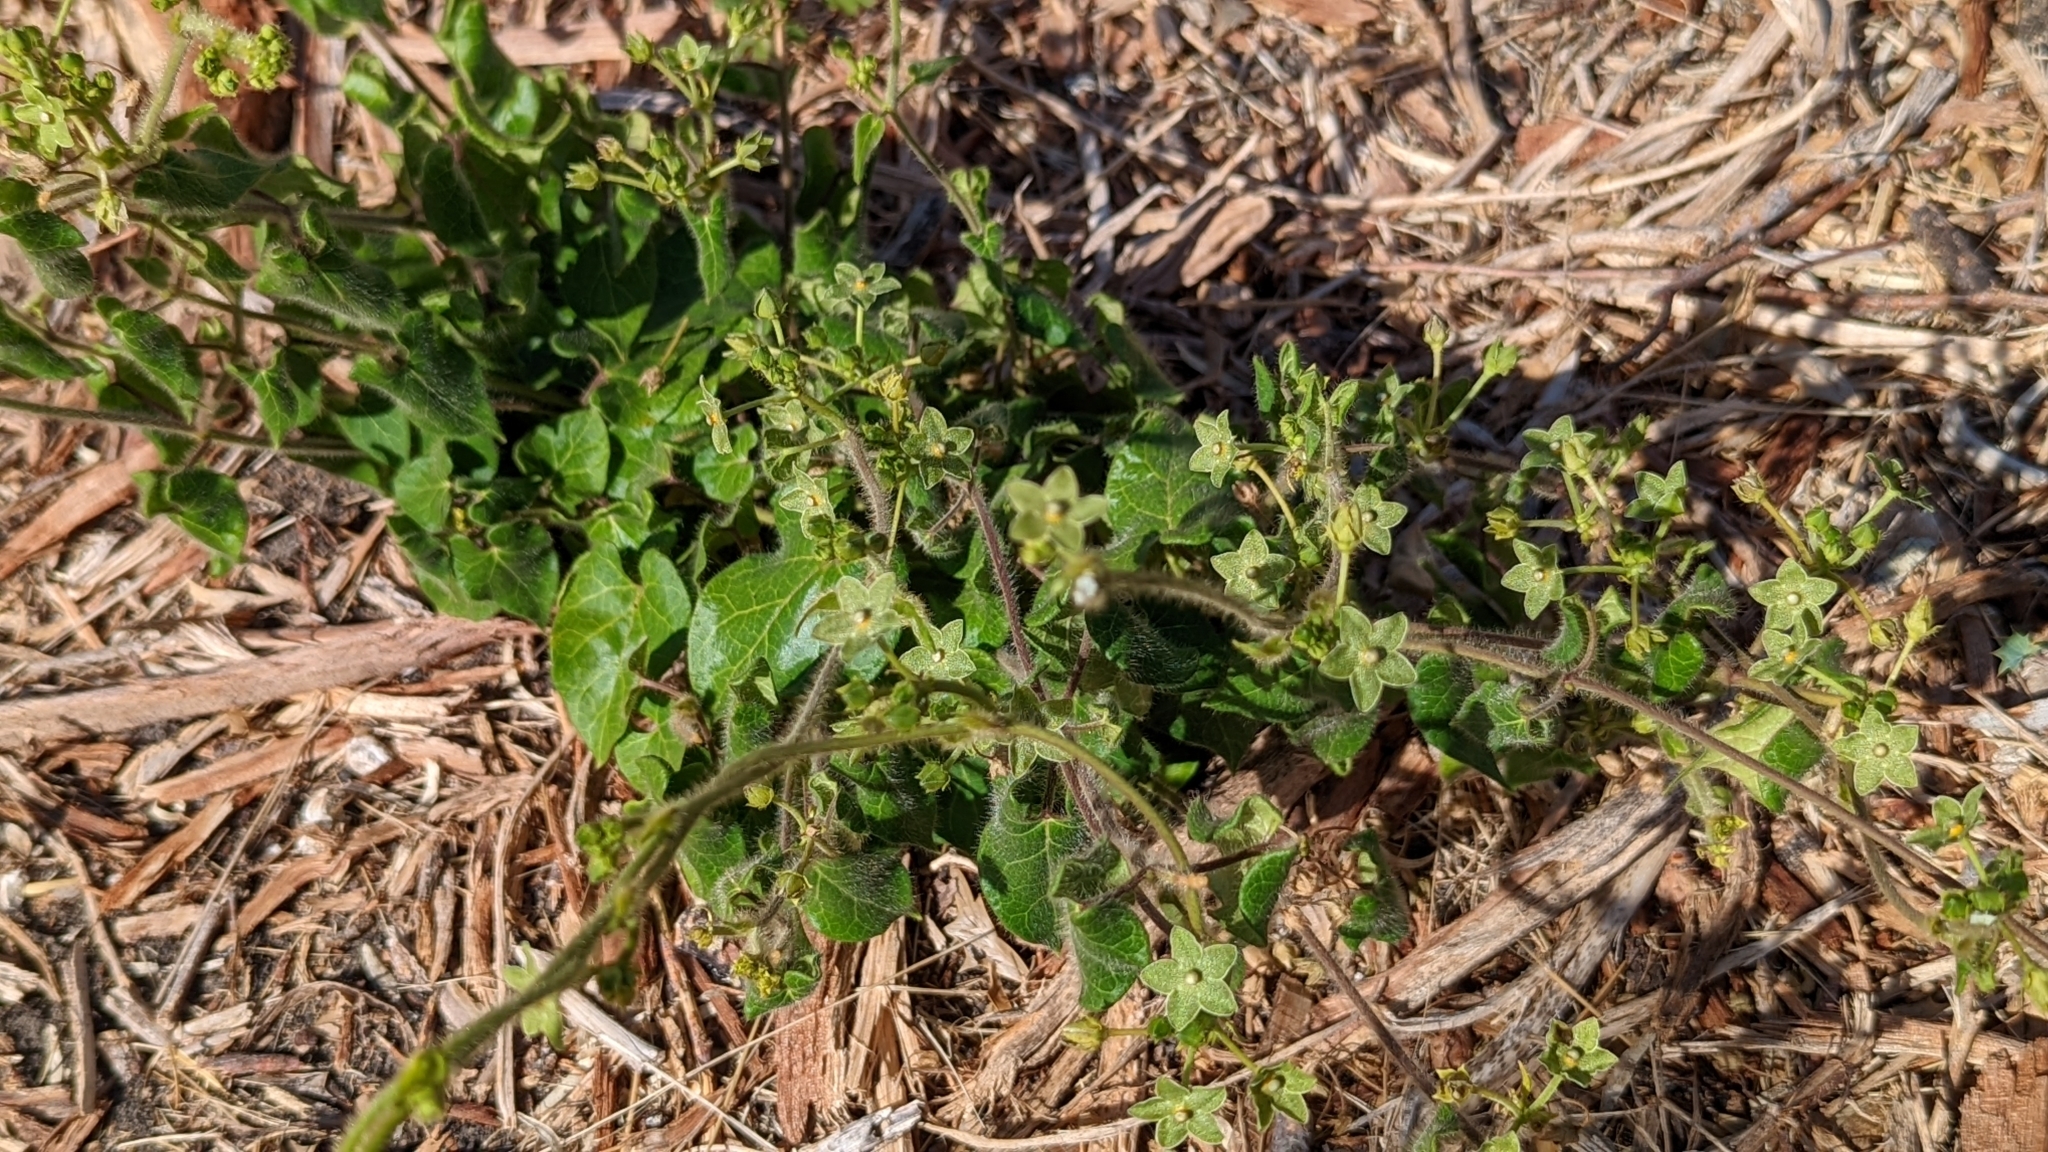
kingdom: Plantae
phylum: Tracheophyta
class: Magnoliopsida
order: Gentianales
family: Apocynaceae
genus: Dictyanthus
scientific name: Dictyanthus reticulatus
